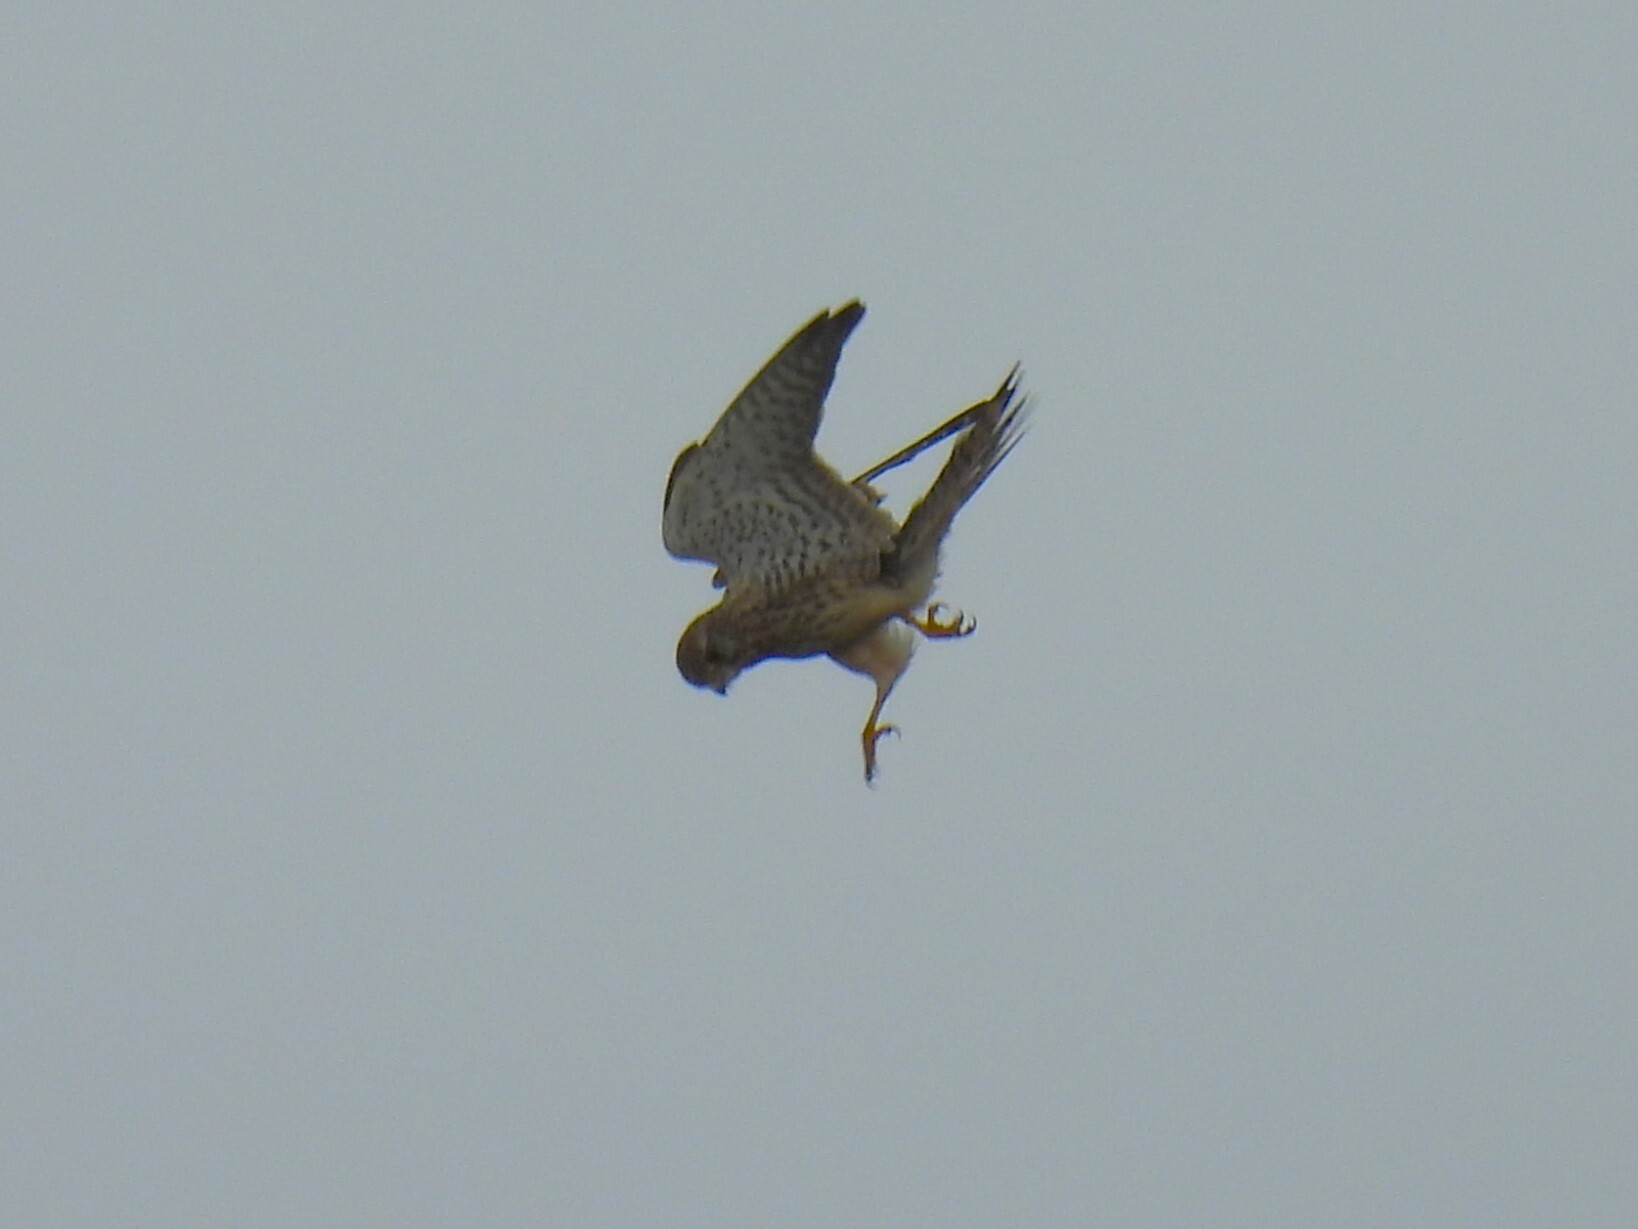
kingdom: Animalia
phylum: Chordata
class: Aves
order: Falconiformes
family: Falconidae
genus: Falco
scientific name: Falco tinnunculus
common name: Common kestrel
